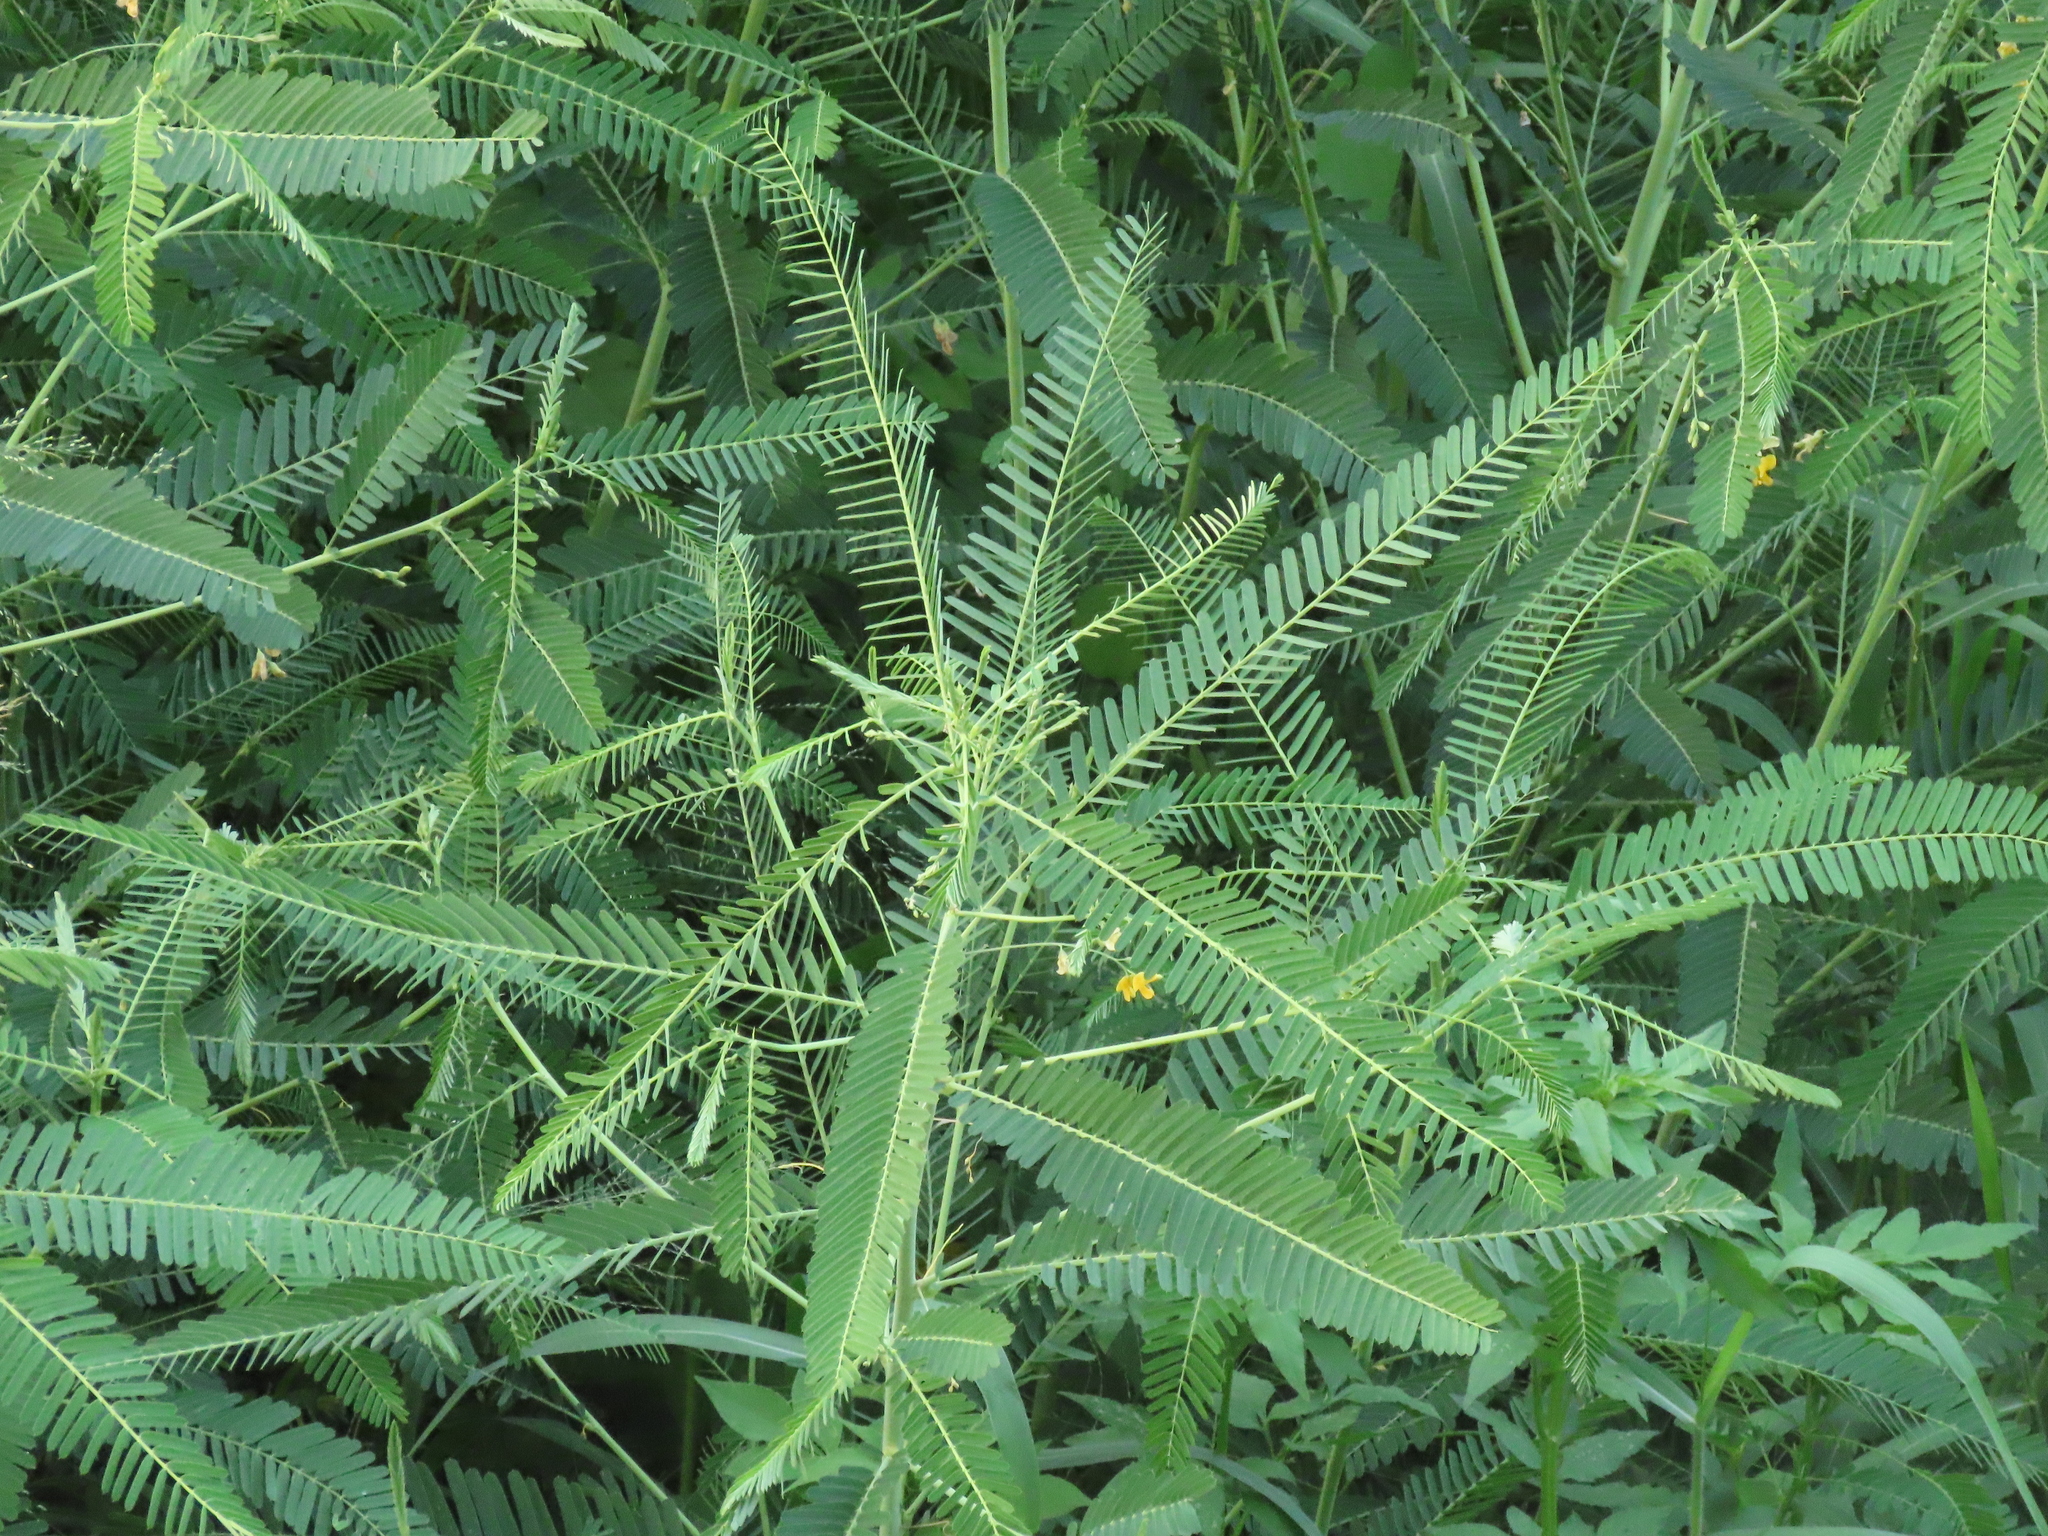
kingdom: Plantae
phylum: Tracheophyta
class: Magnoliopsida
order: Fabales
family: Fabaceae
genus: Sesbania
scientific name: Sesbania cannabina
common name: Canicha
